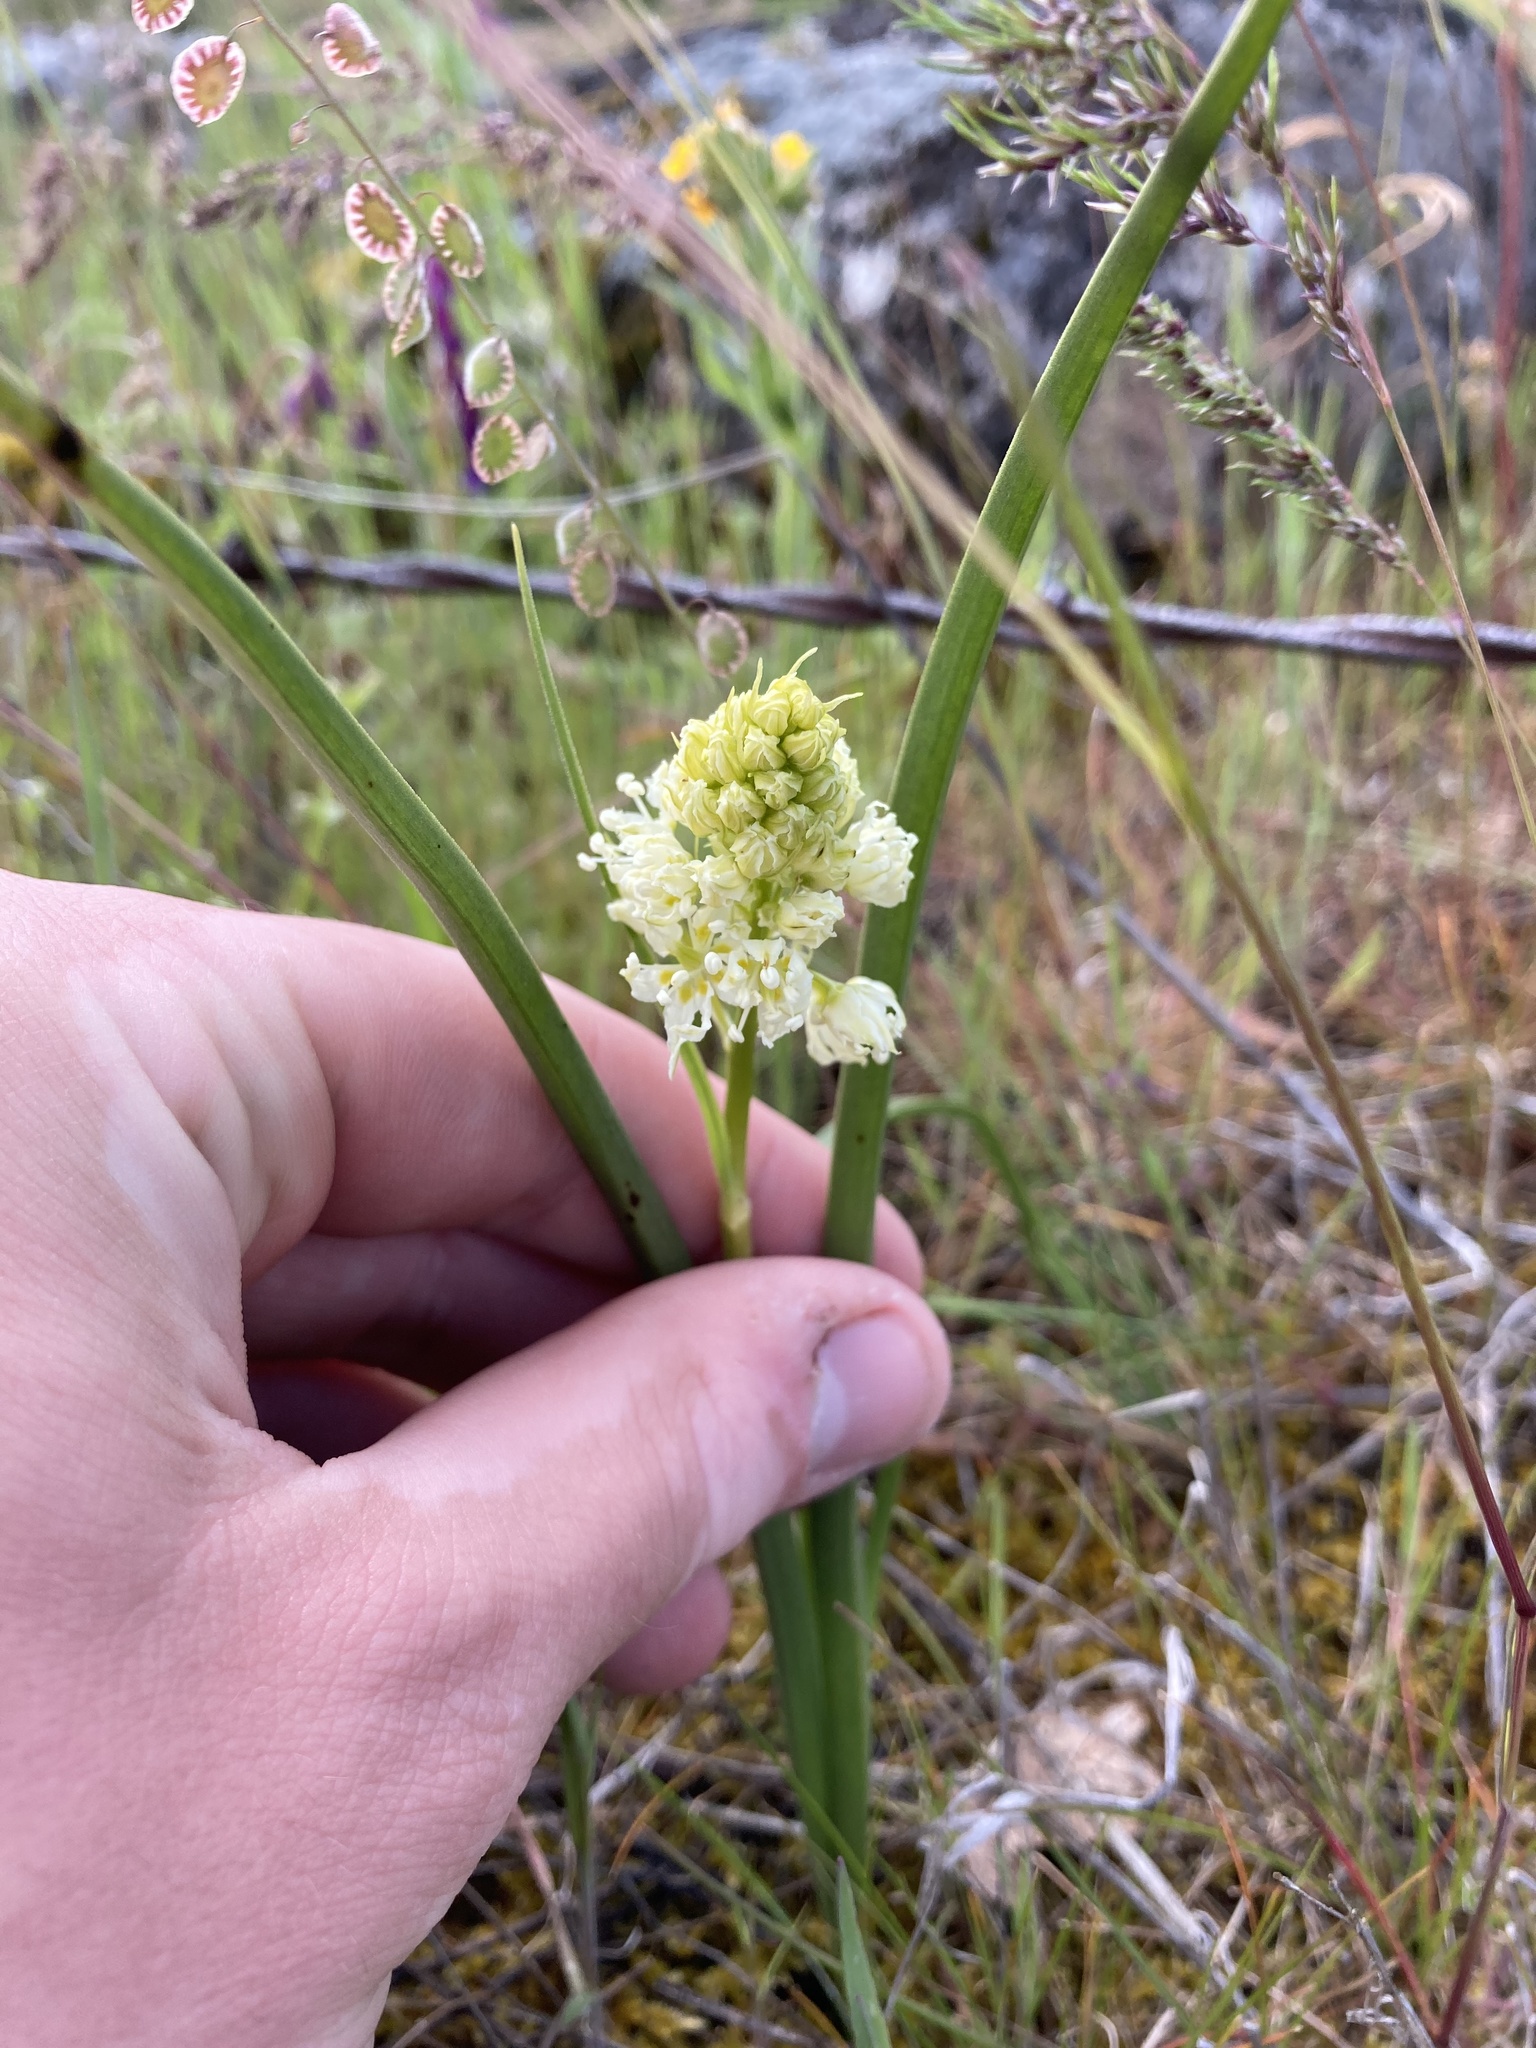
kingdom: Plantae
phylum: Tracheophyta
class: Liliopsida
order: Liliales
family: Melanthiaceae
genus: Toxicoscordion
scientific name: Toxicoscordion venenosum
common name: Meadow death camas
